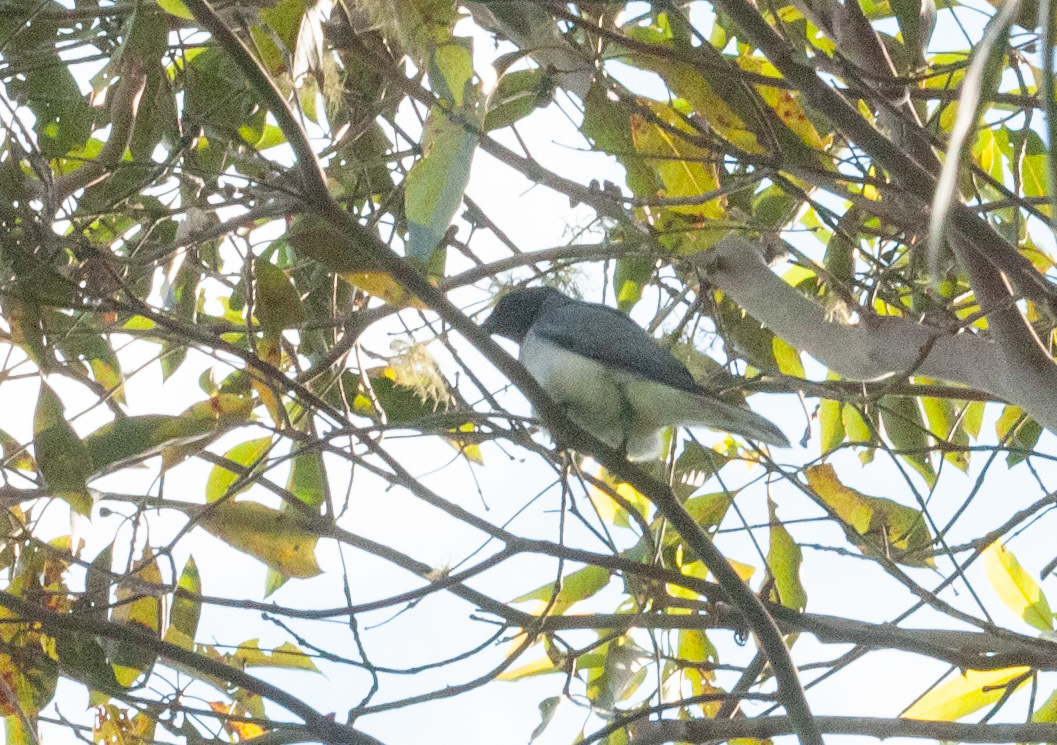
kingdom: Animalia
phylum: Chordata
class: Aves
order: Passeriformes
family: Campephagidae
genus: Coracina
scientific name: Coracina novaehollandiae
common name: Black-faced cuckooshrike
